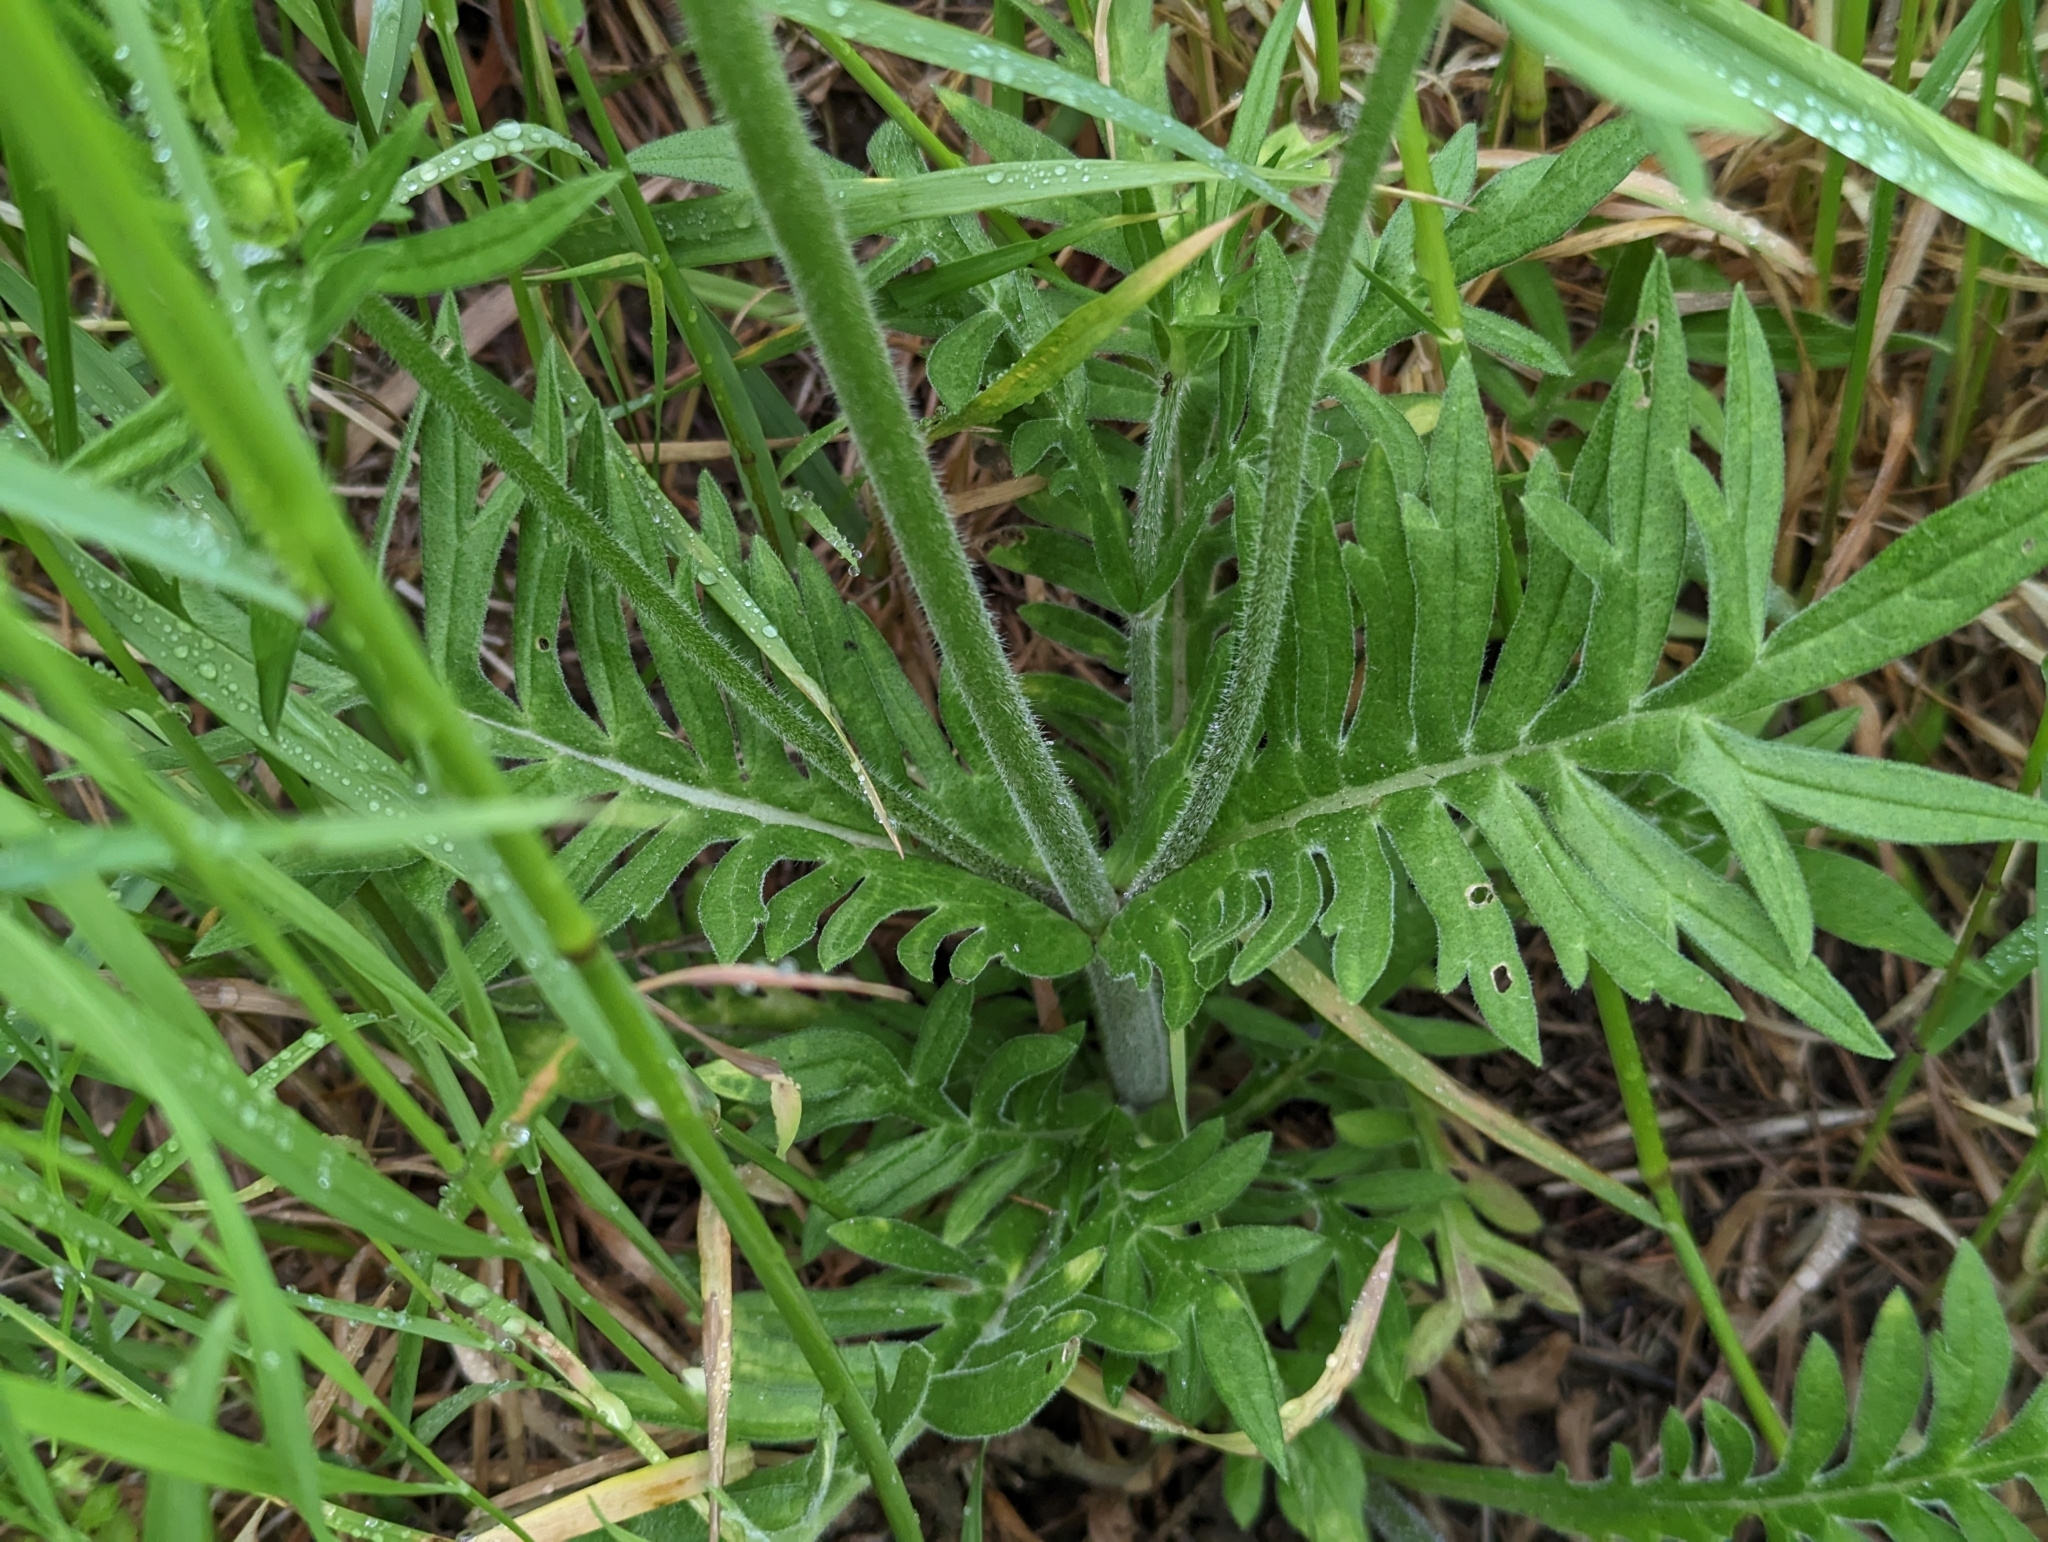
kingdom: Plantae
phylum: Tracheophyta
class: Magnoliopsida
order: Dipsacales
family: Caprifoliaceae
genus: Knautia
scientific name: Knautia arvensis
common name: Field scabiosa
